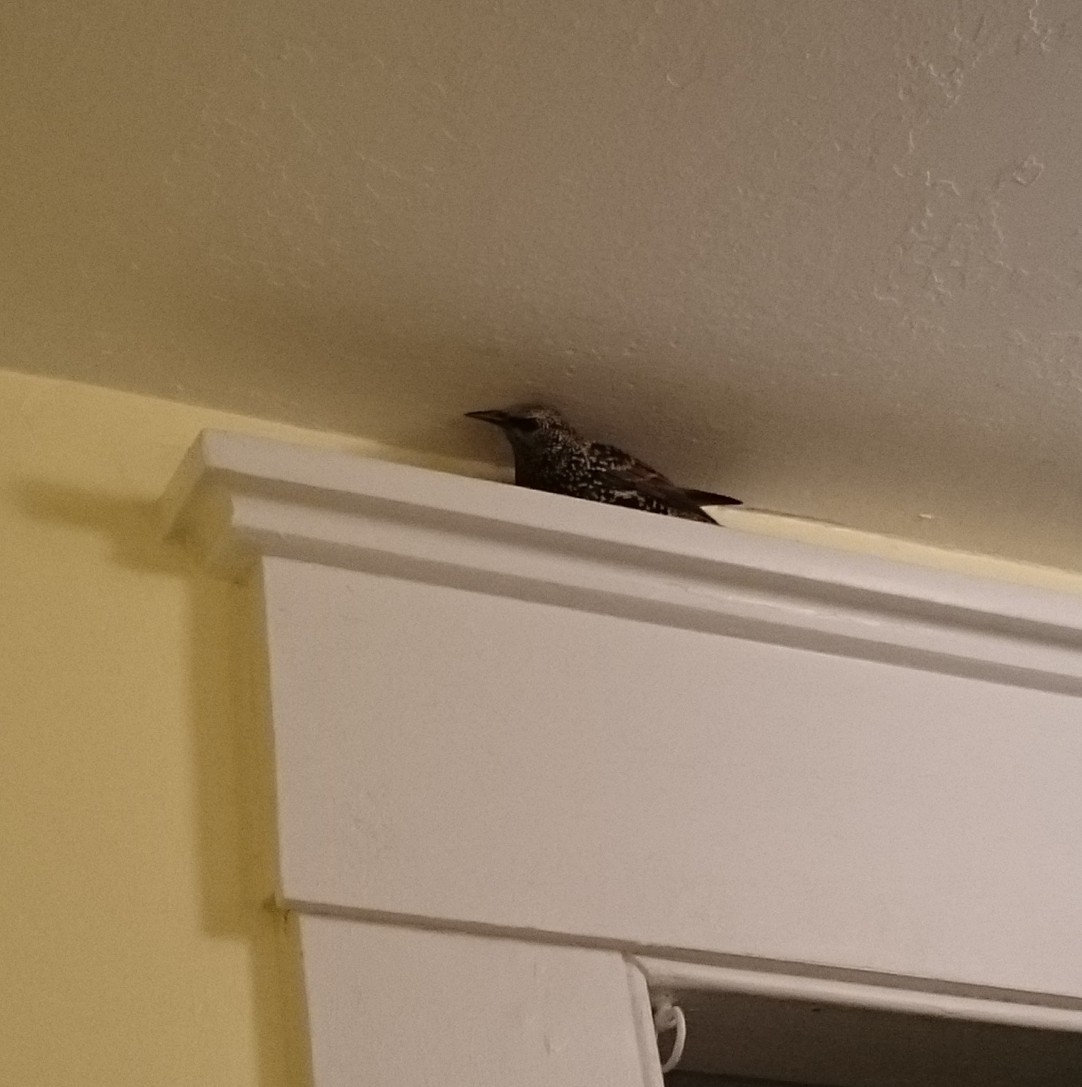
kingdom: Animalia
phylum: Chordata
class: Aves
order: Passeriformes
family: Sturnidae
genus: Sturnus
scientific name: Sturnus vulgaris
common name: Common starling
